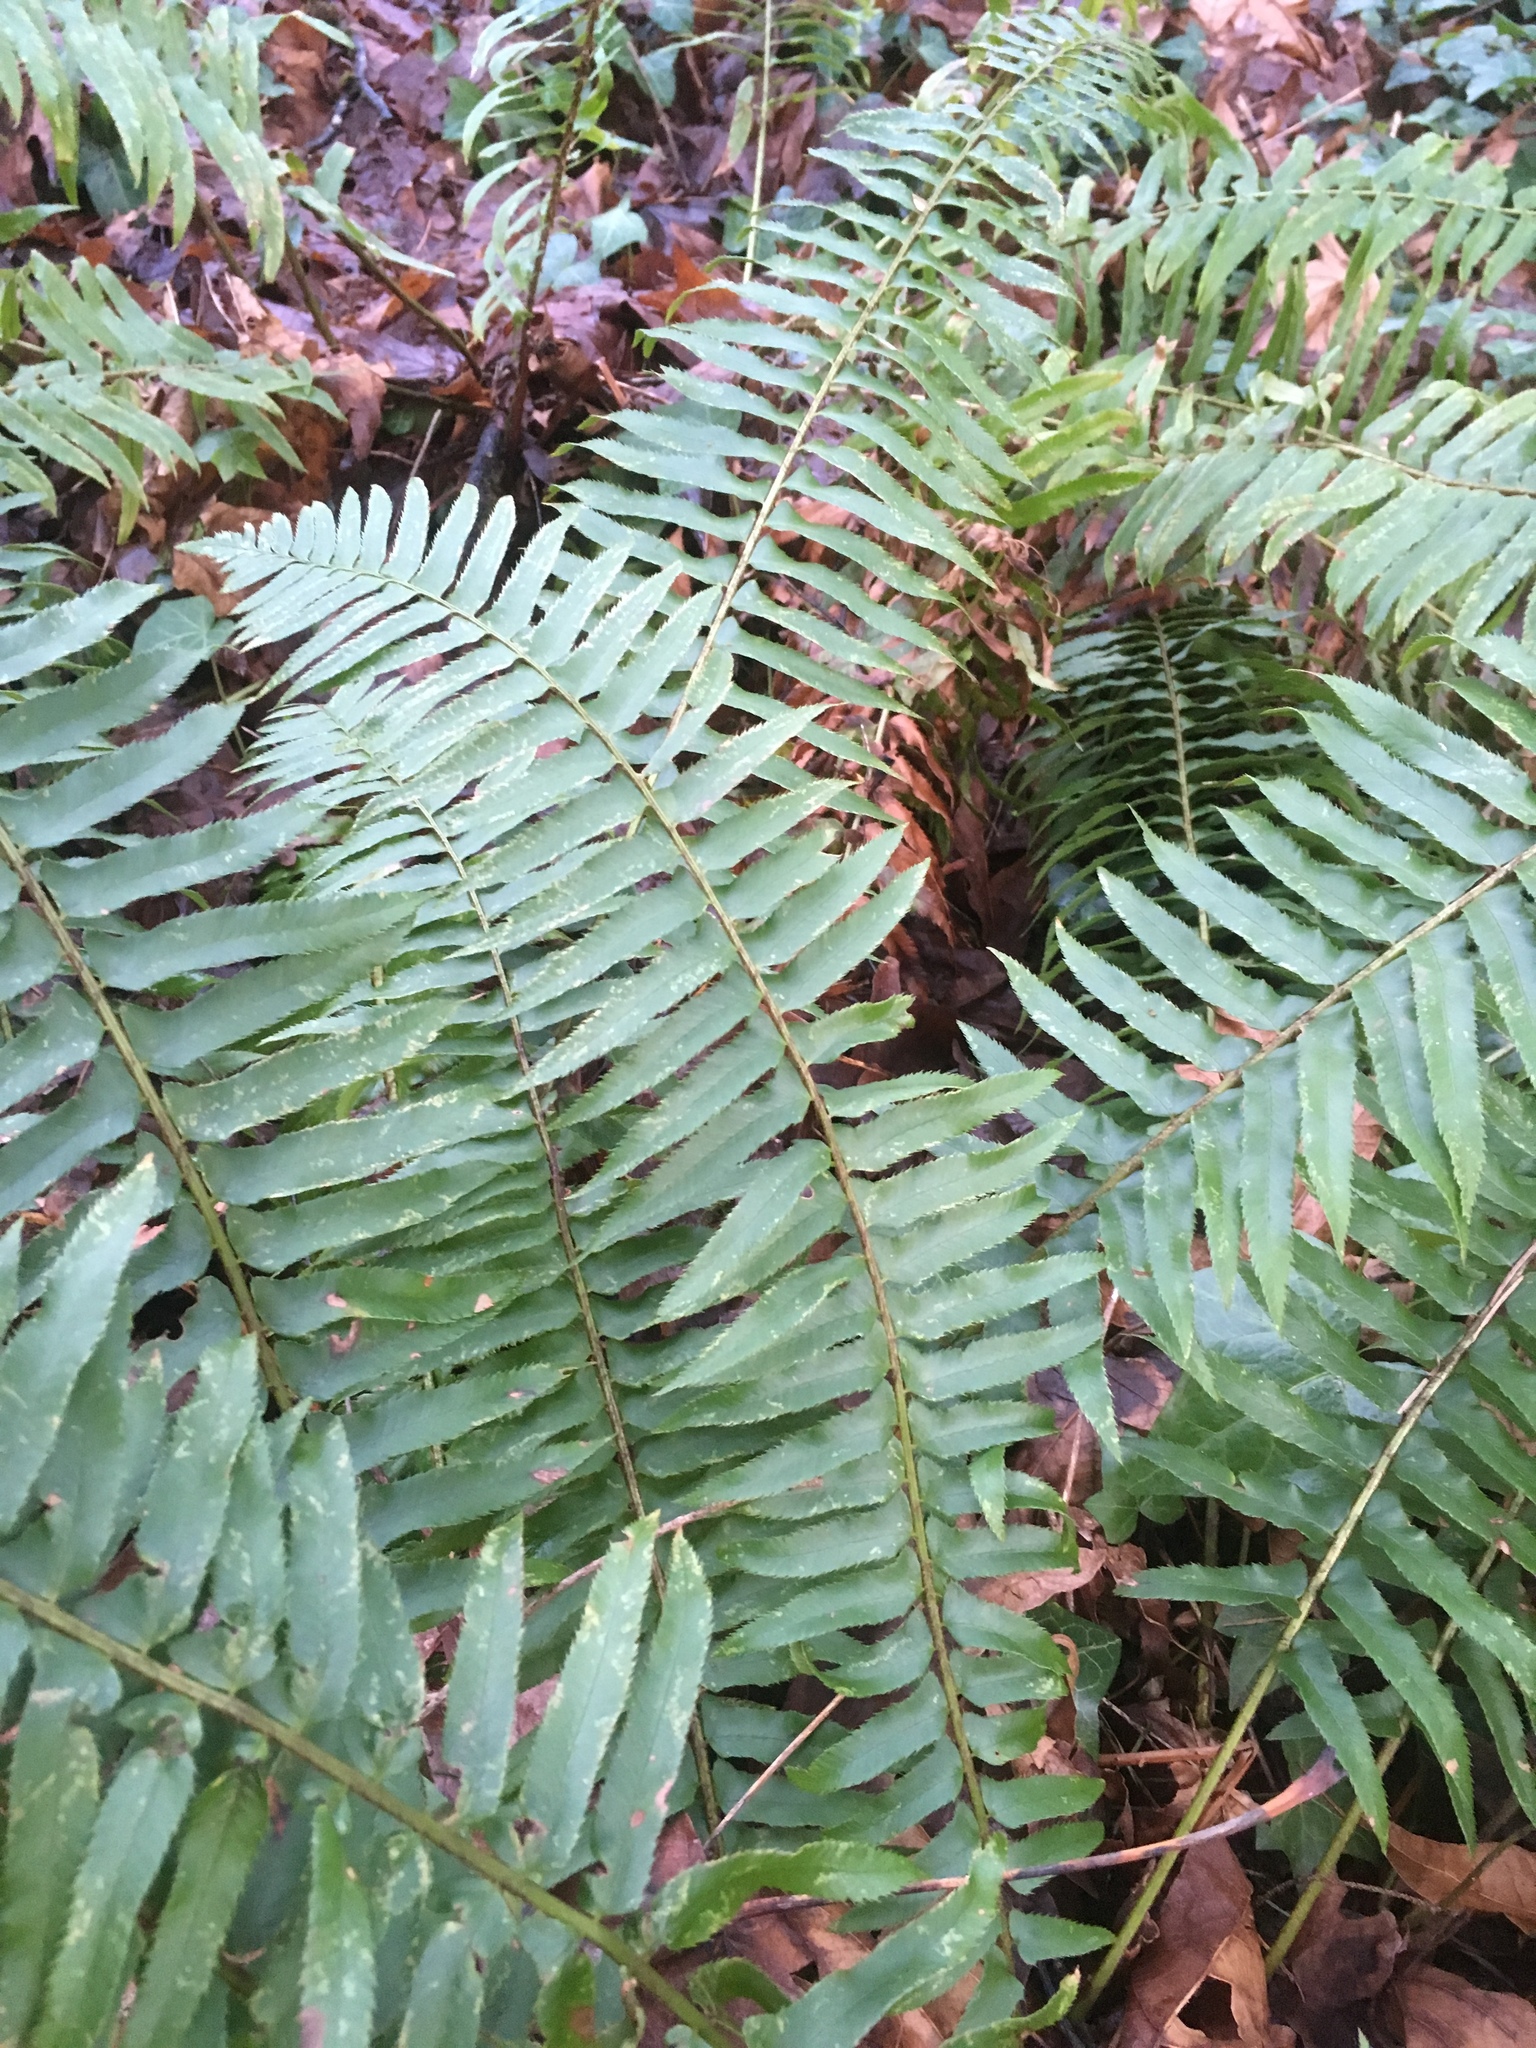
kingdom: Plantae
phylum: Tracheophyta
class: Polypodiopsida
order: Polypodiales
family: Dryopteridaceae
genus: Polystichum
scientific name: Polystichum munitum
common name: Western sword-fern
